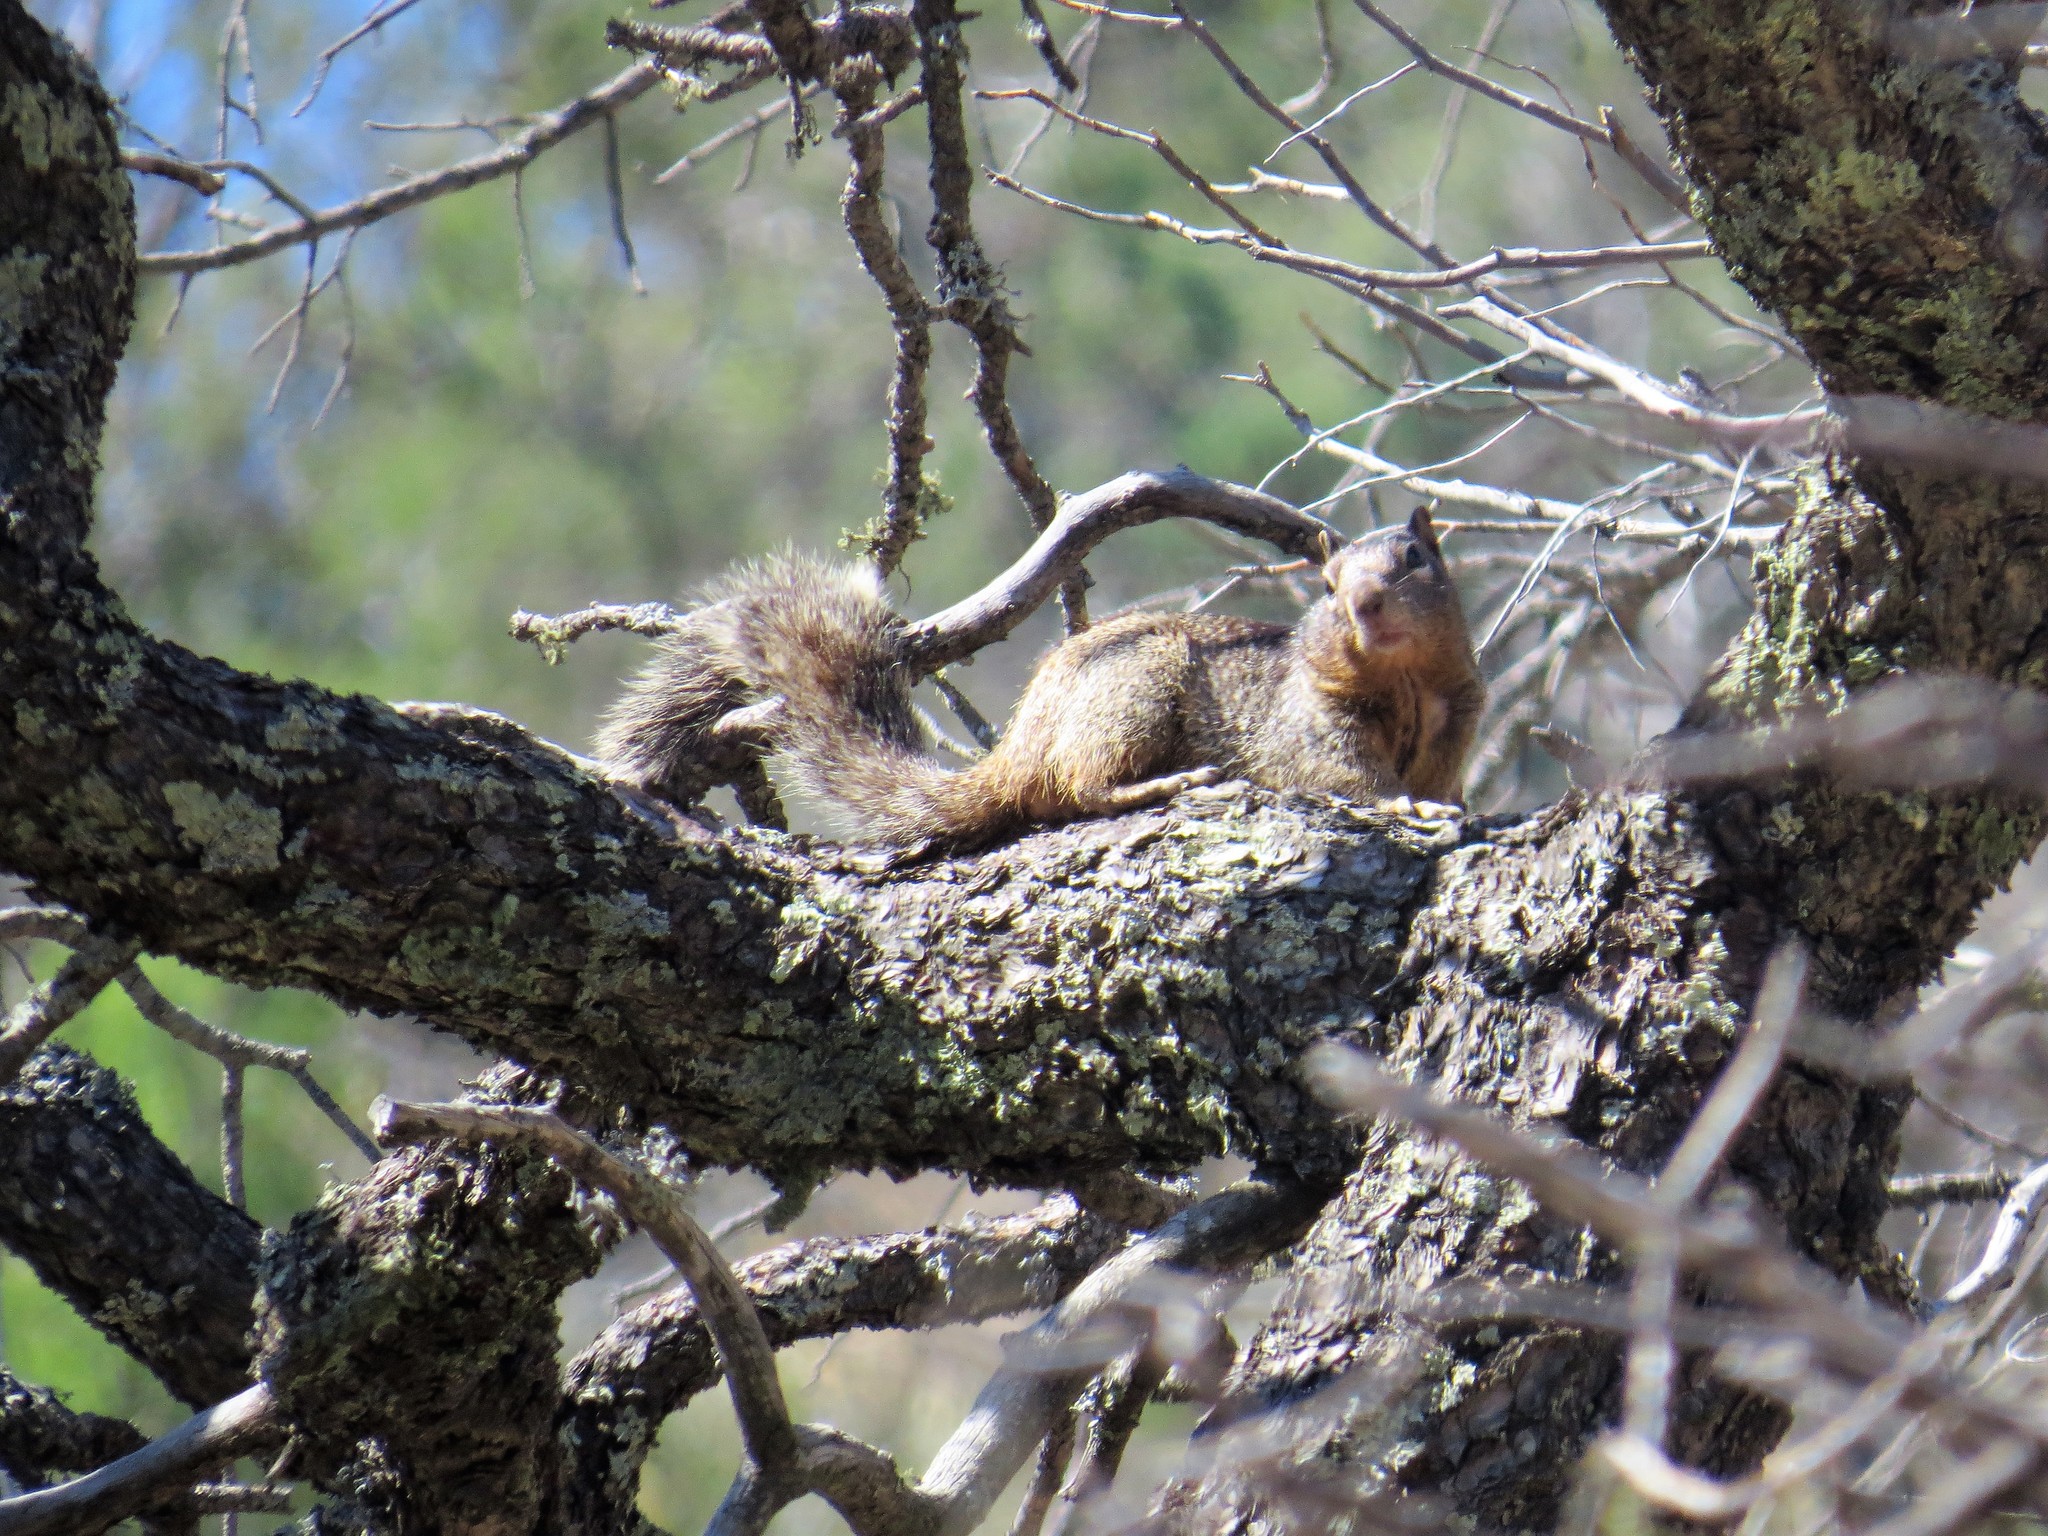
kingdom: Animalia
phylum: Chordata
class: Mammalia
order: Rodentia
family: Sciuridae
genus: Otospermophilus
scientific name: Otospermophilus variegatus
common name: Rock squirrel
